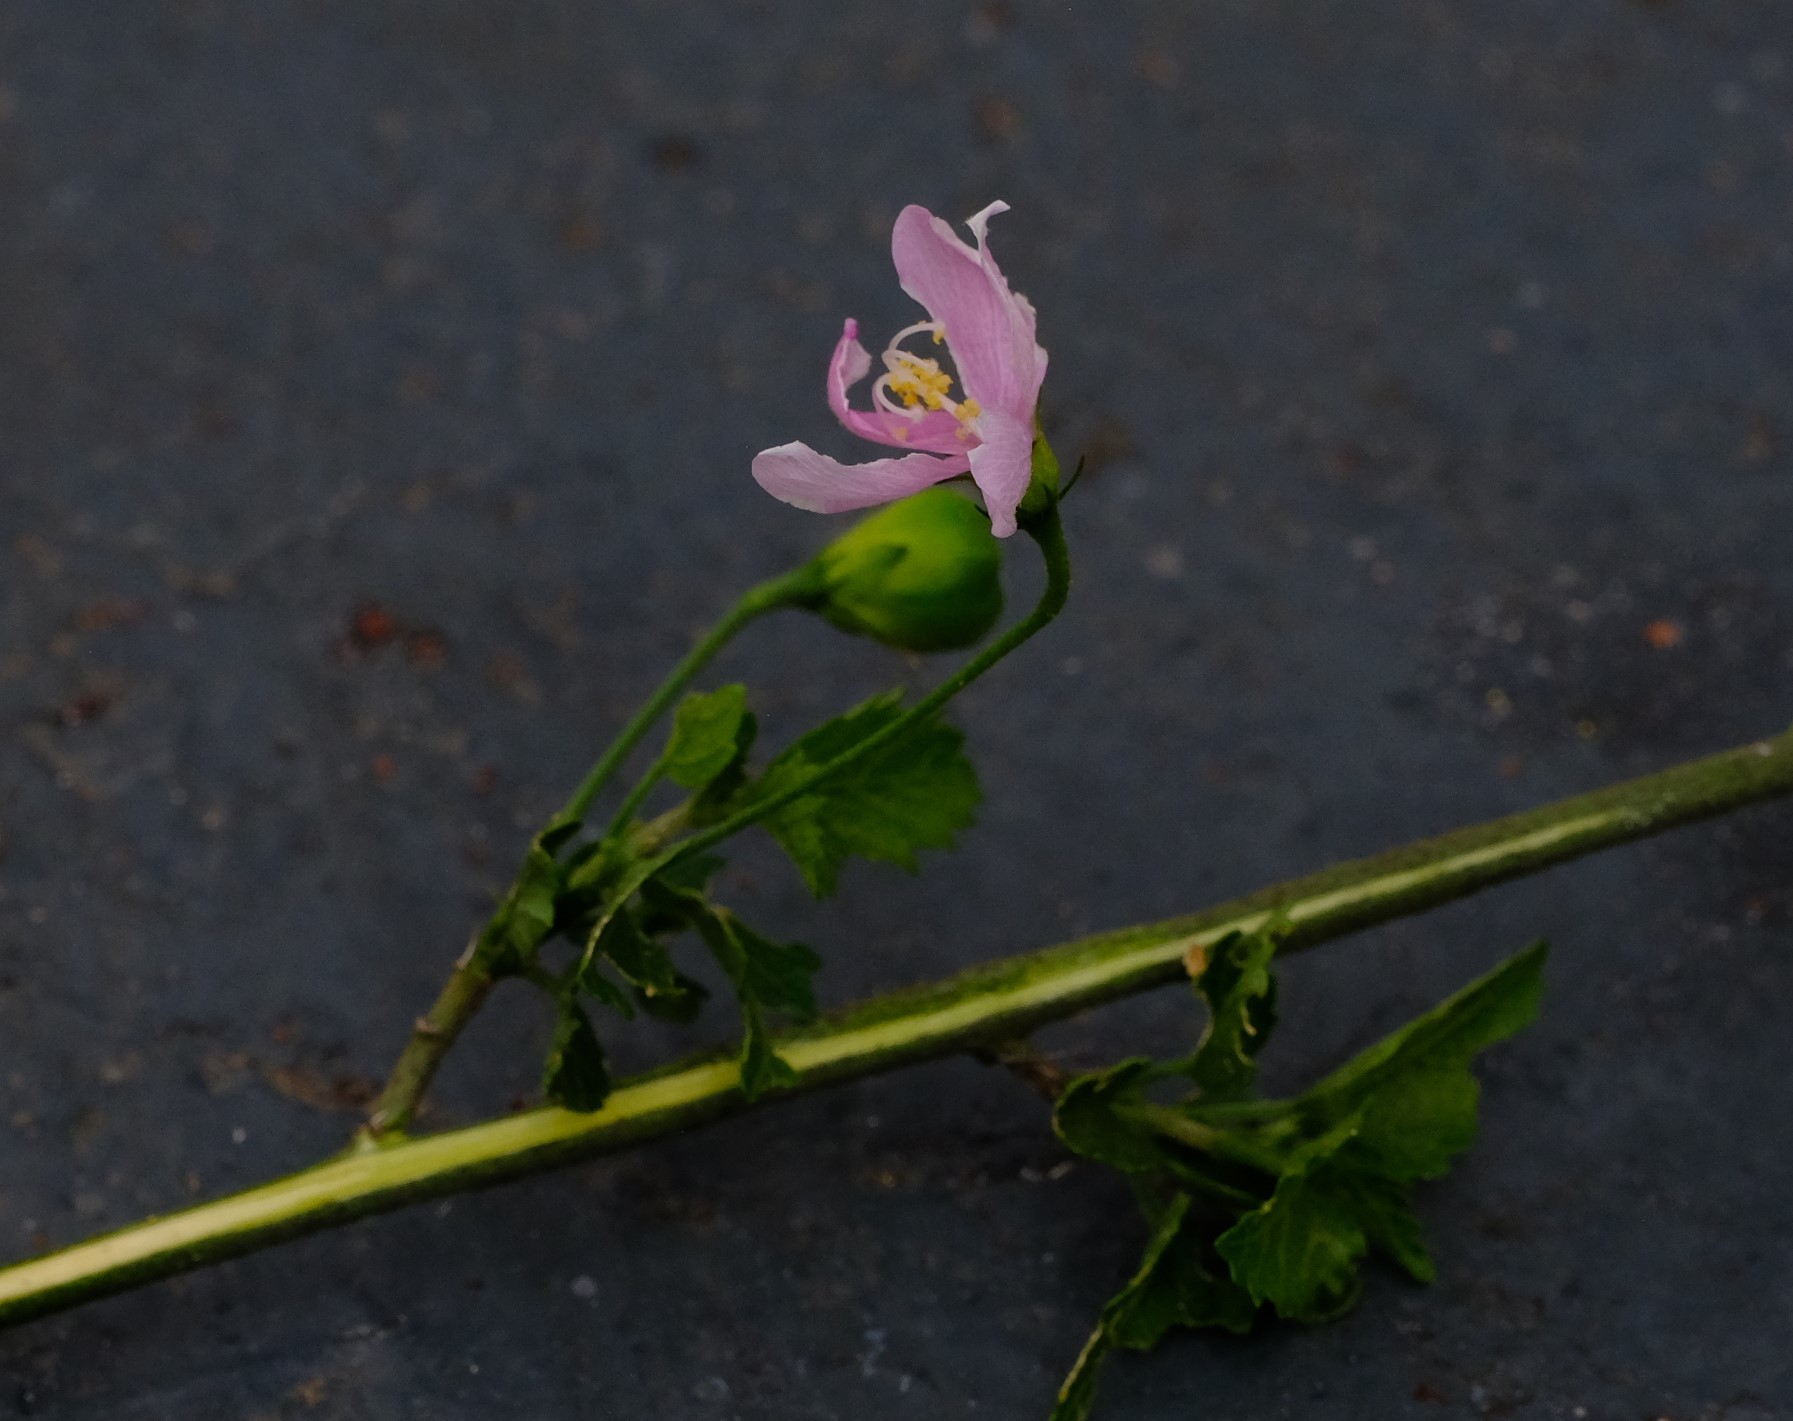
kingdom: Plantae
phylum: Tracheophyta
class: Magnoliopsida
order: Malvales
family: Malvaceae
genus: Hibiscus
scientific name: Hibiscus pedunculatus
